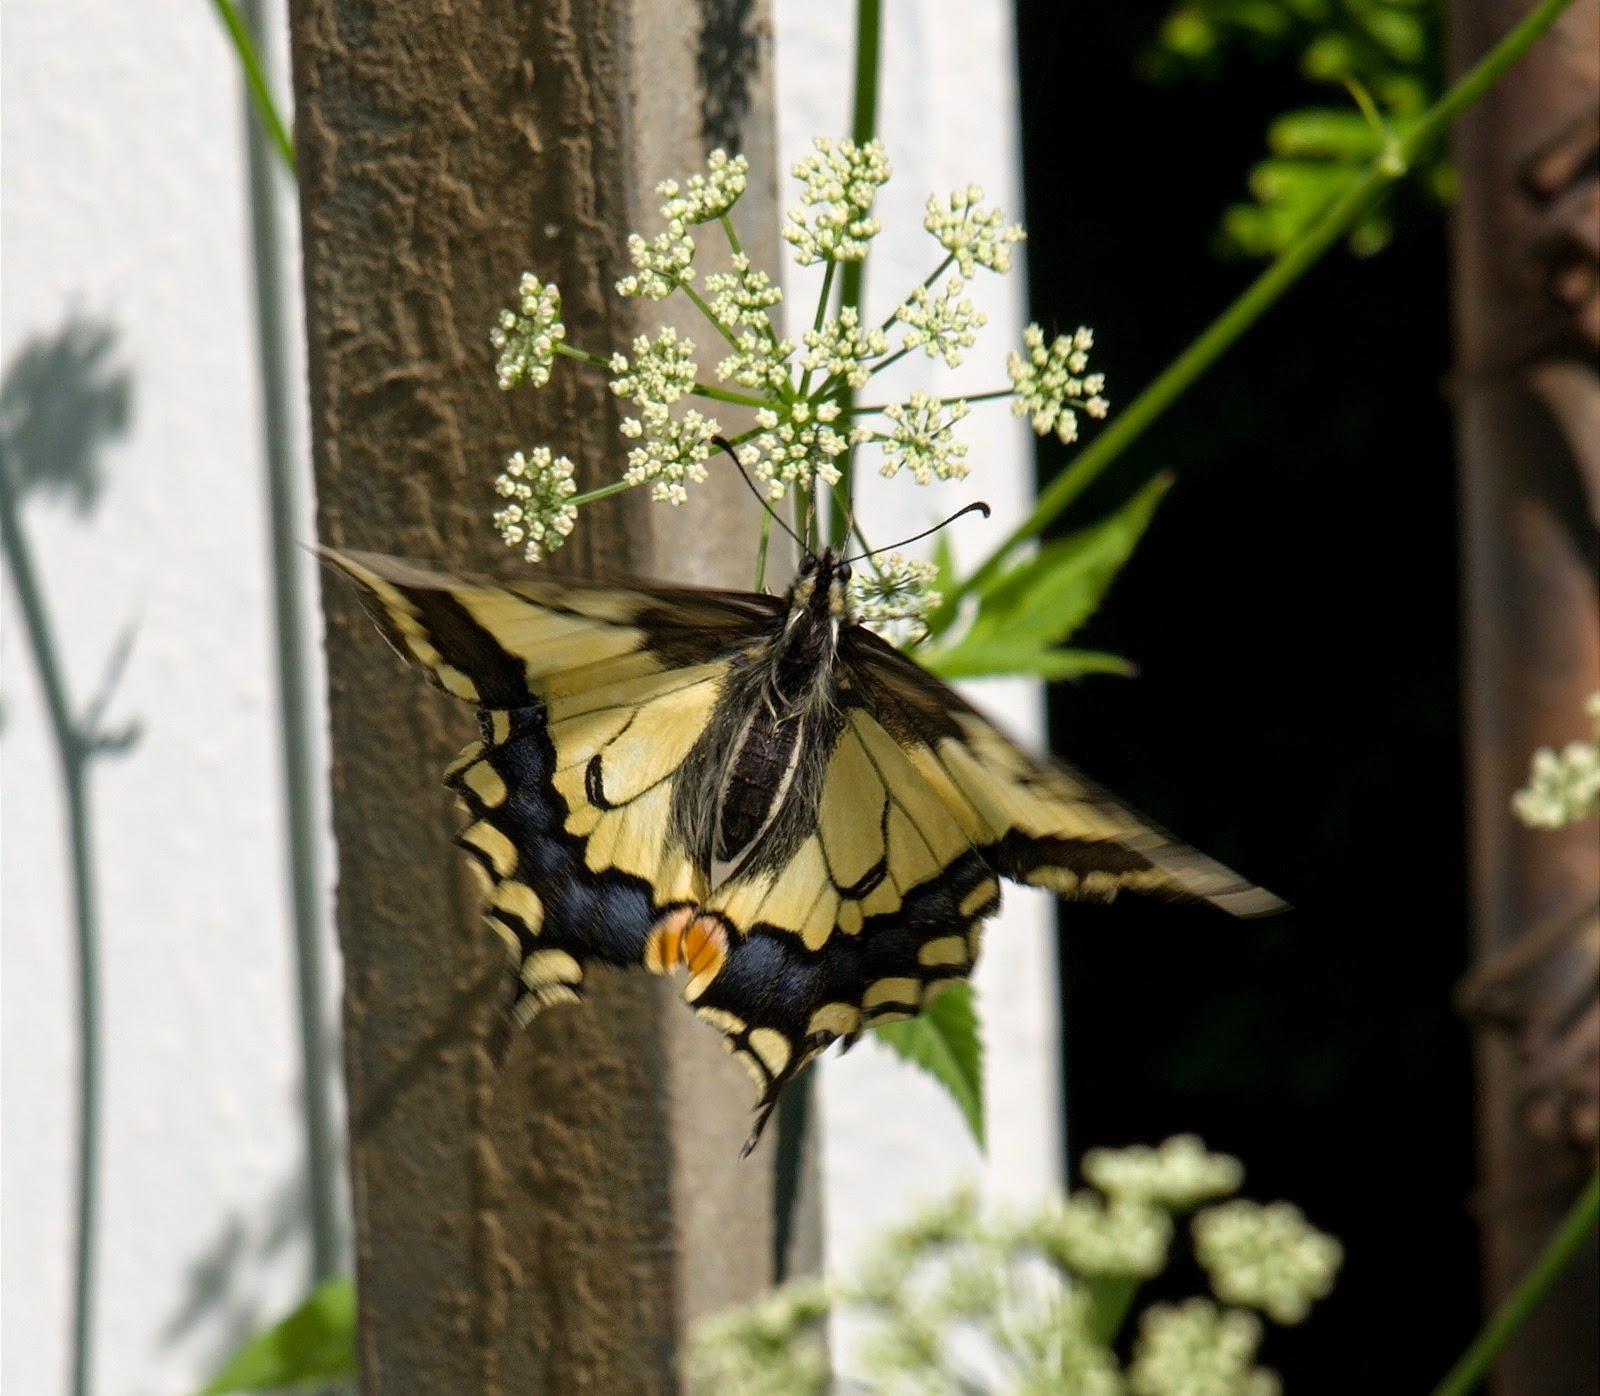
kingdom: Animalia
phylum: Arthropoda
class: Insecta
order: Lepidoptera
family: Papilionidae
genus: Papilio
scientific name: Papilio machaon
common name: Swallowtail
